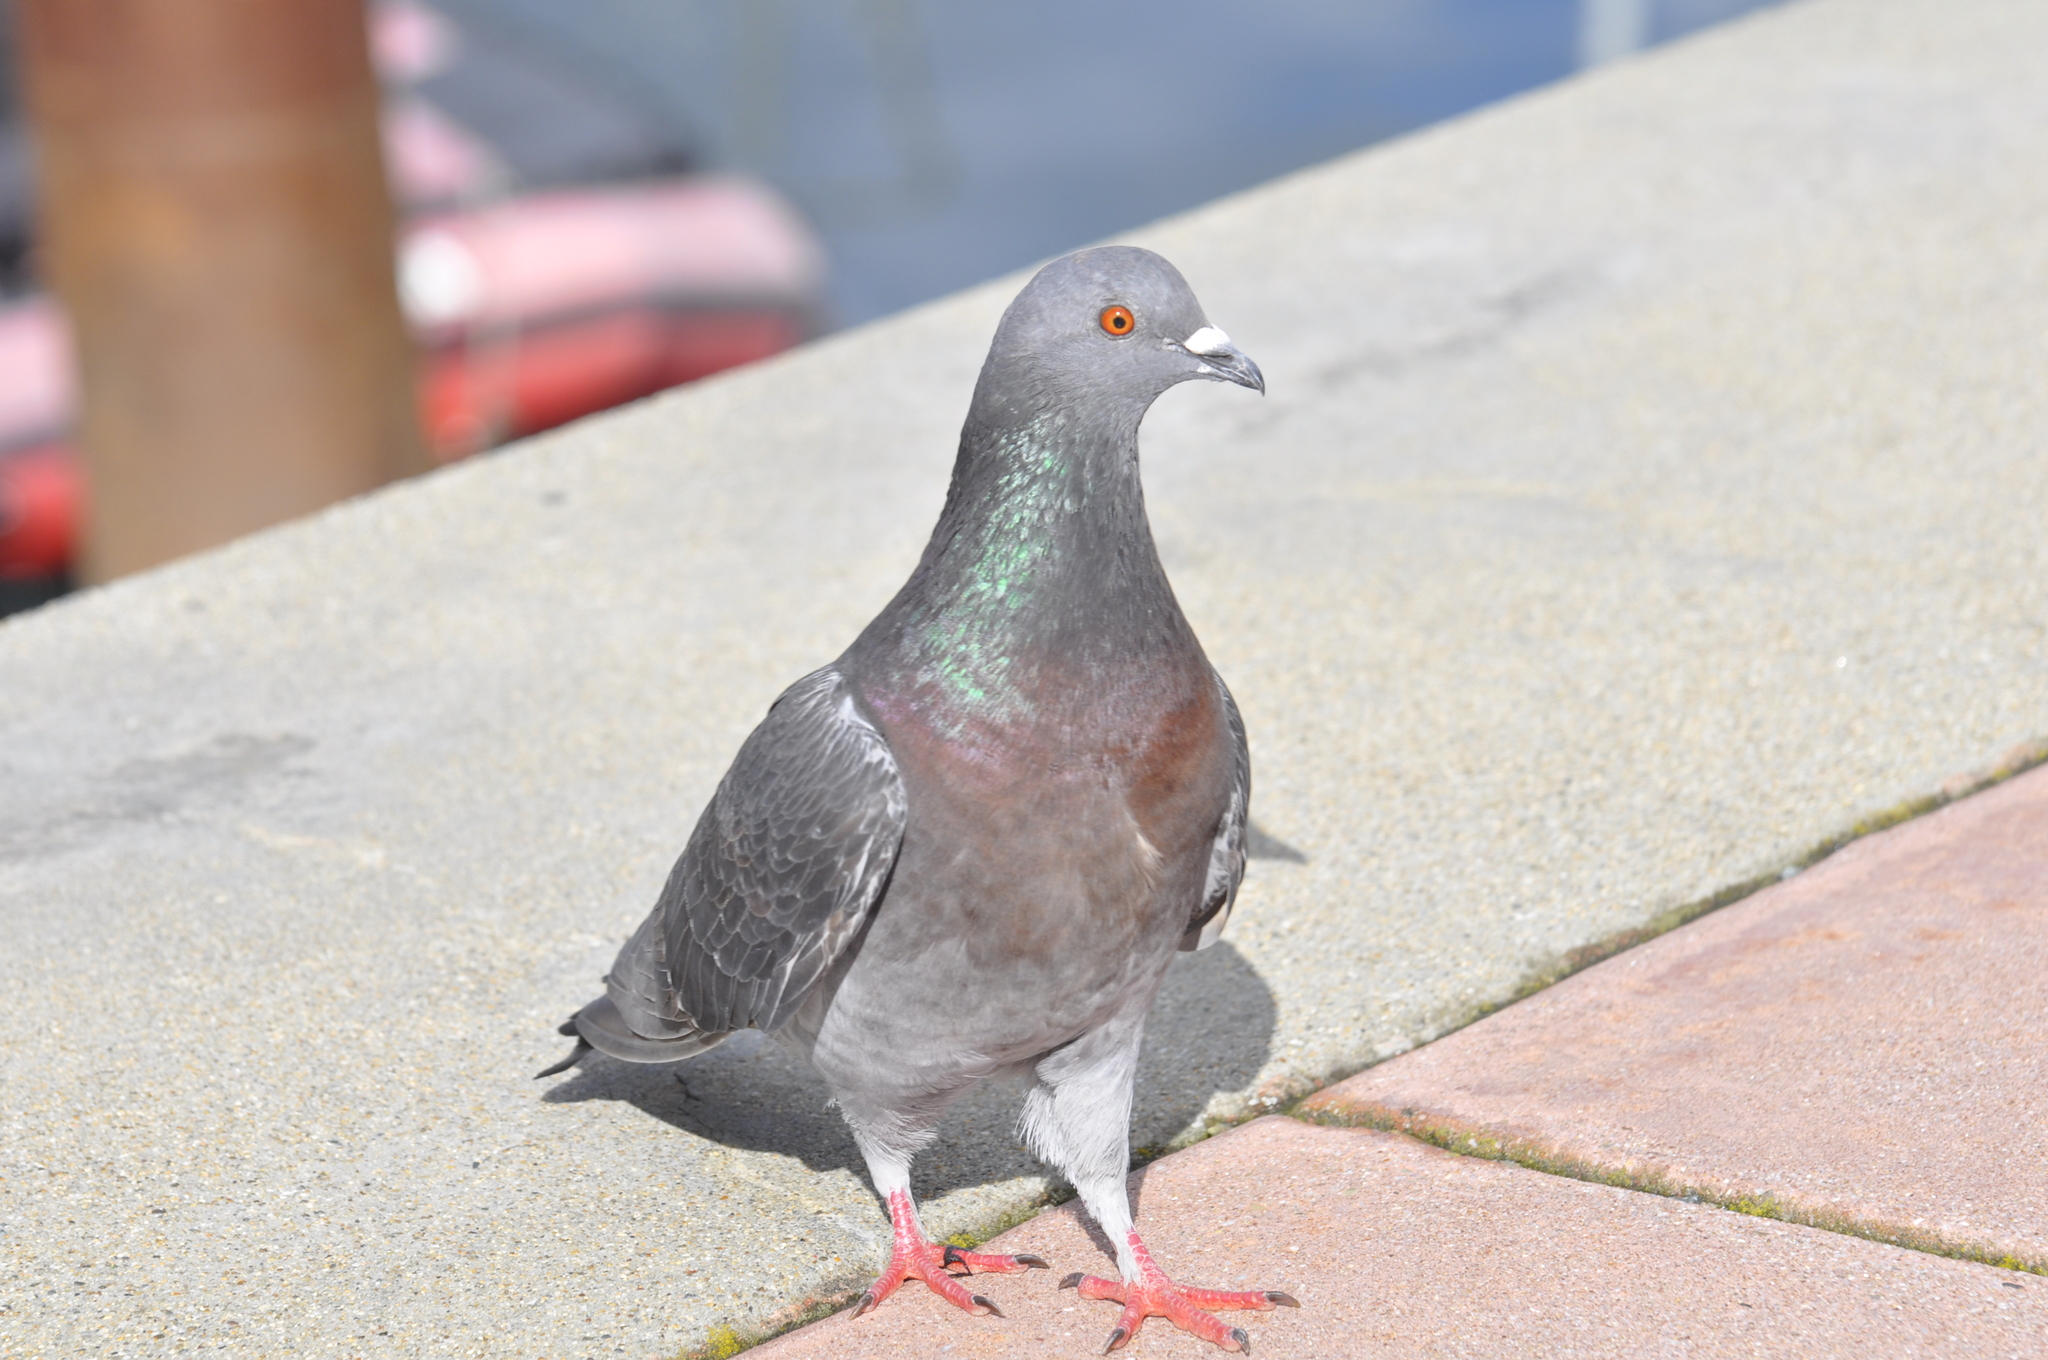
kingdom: Animalia
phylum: Chordata
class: Aves
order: Columbiformes
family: Columbidae
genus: Columba
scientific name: Columba livia
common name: Rock pigeon
